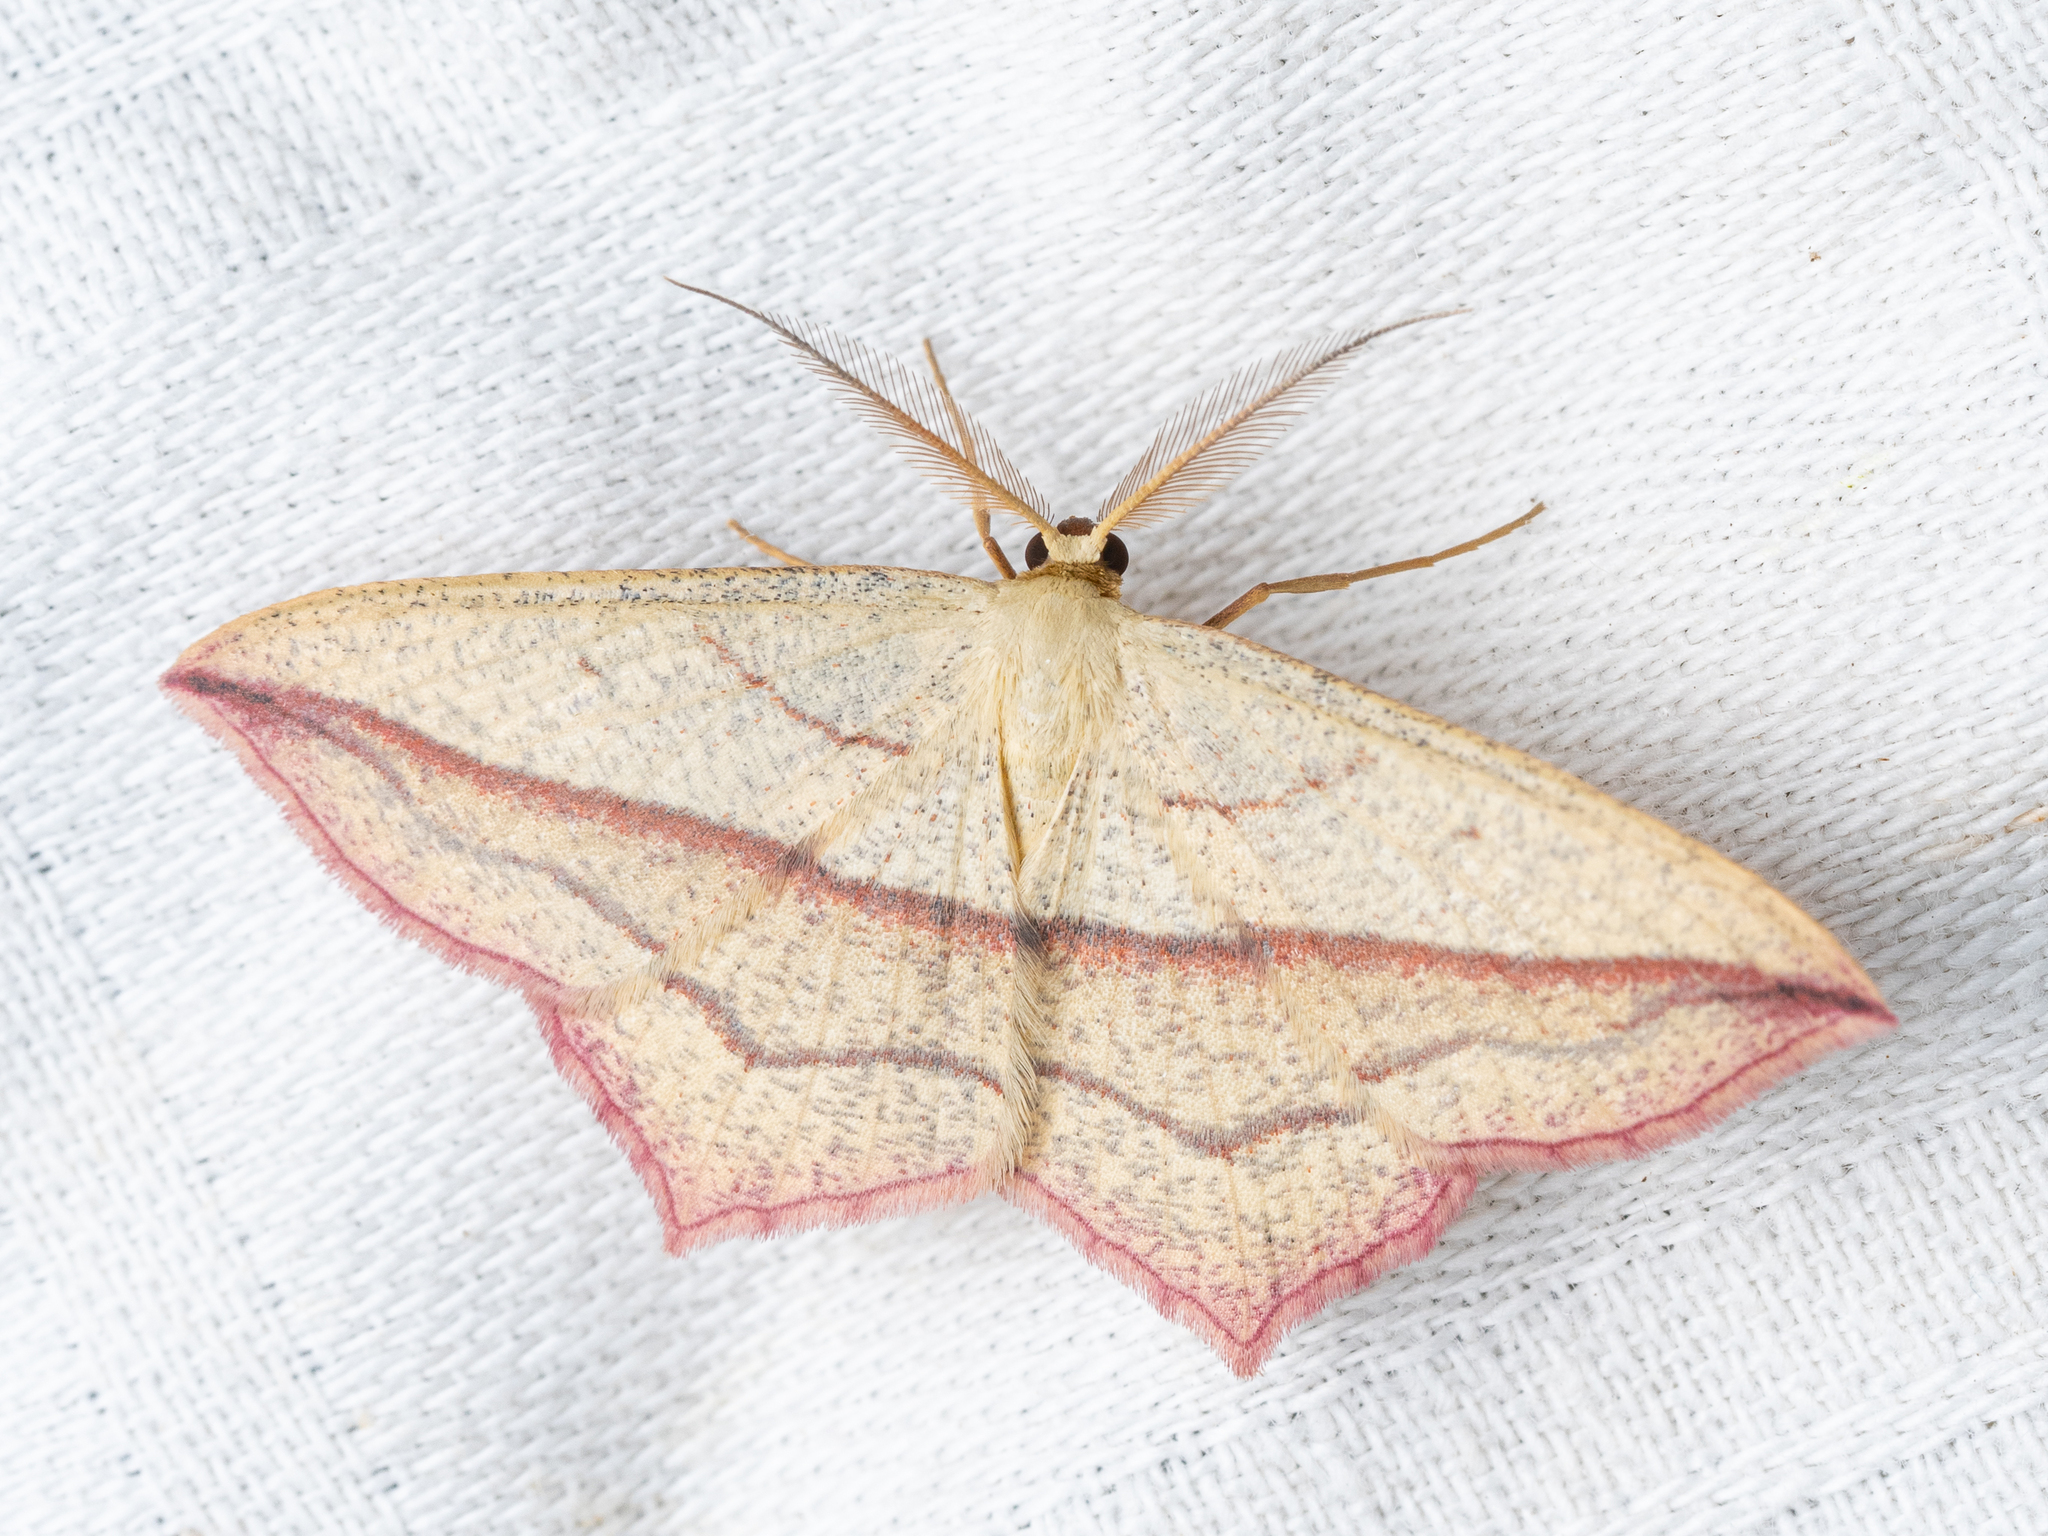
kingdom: Animalia
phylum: Arthropoda
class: Insecta
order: Lepidoptera
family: Geometridae
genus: Timandra
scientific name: Timandra comae
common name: Blood-vein
